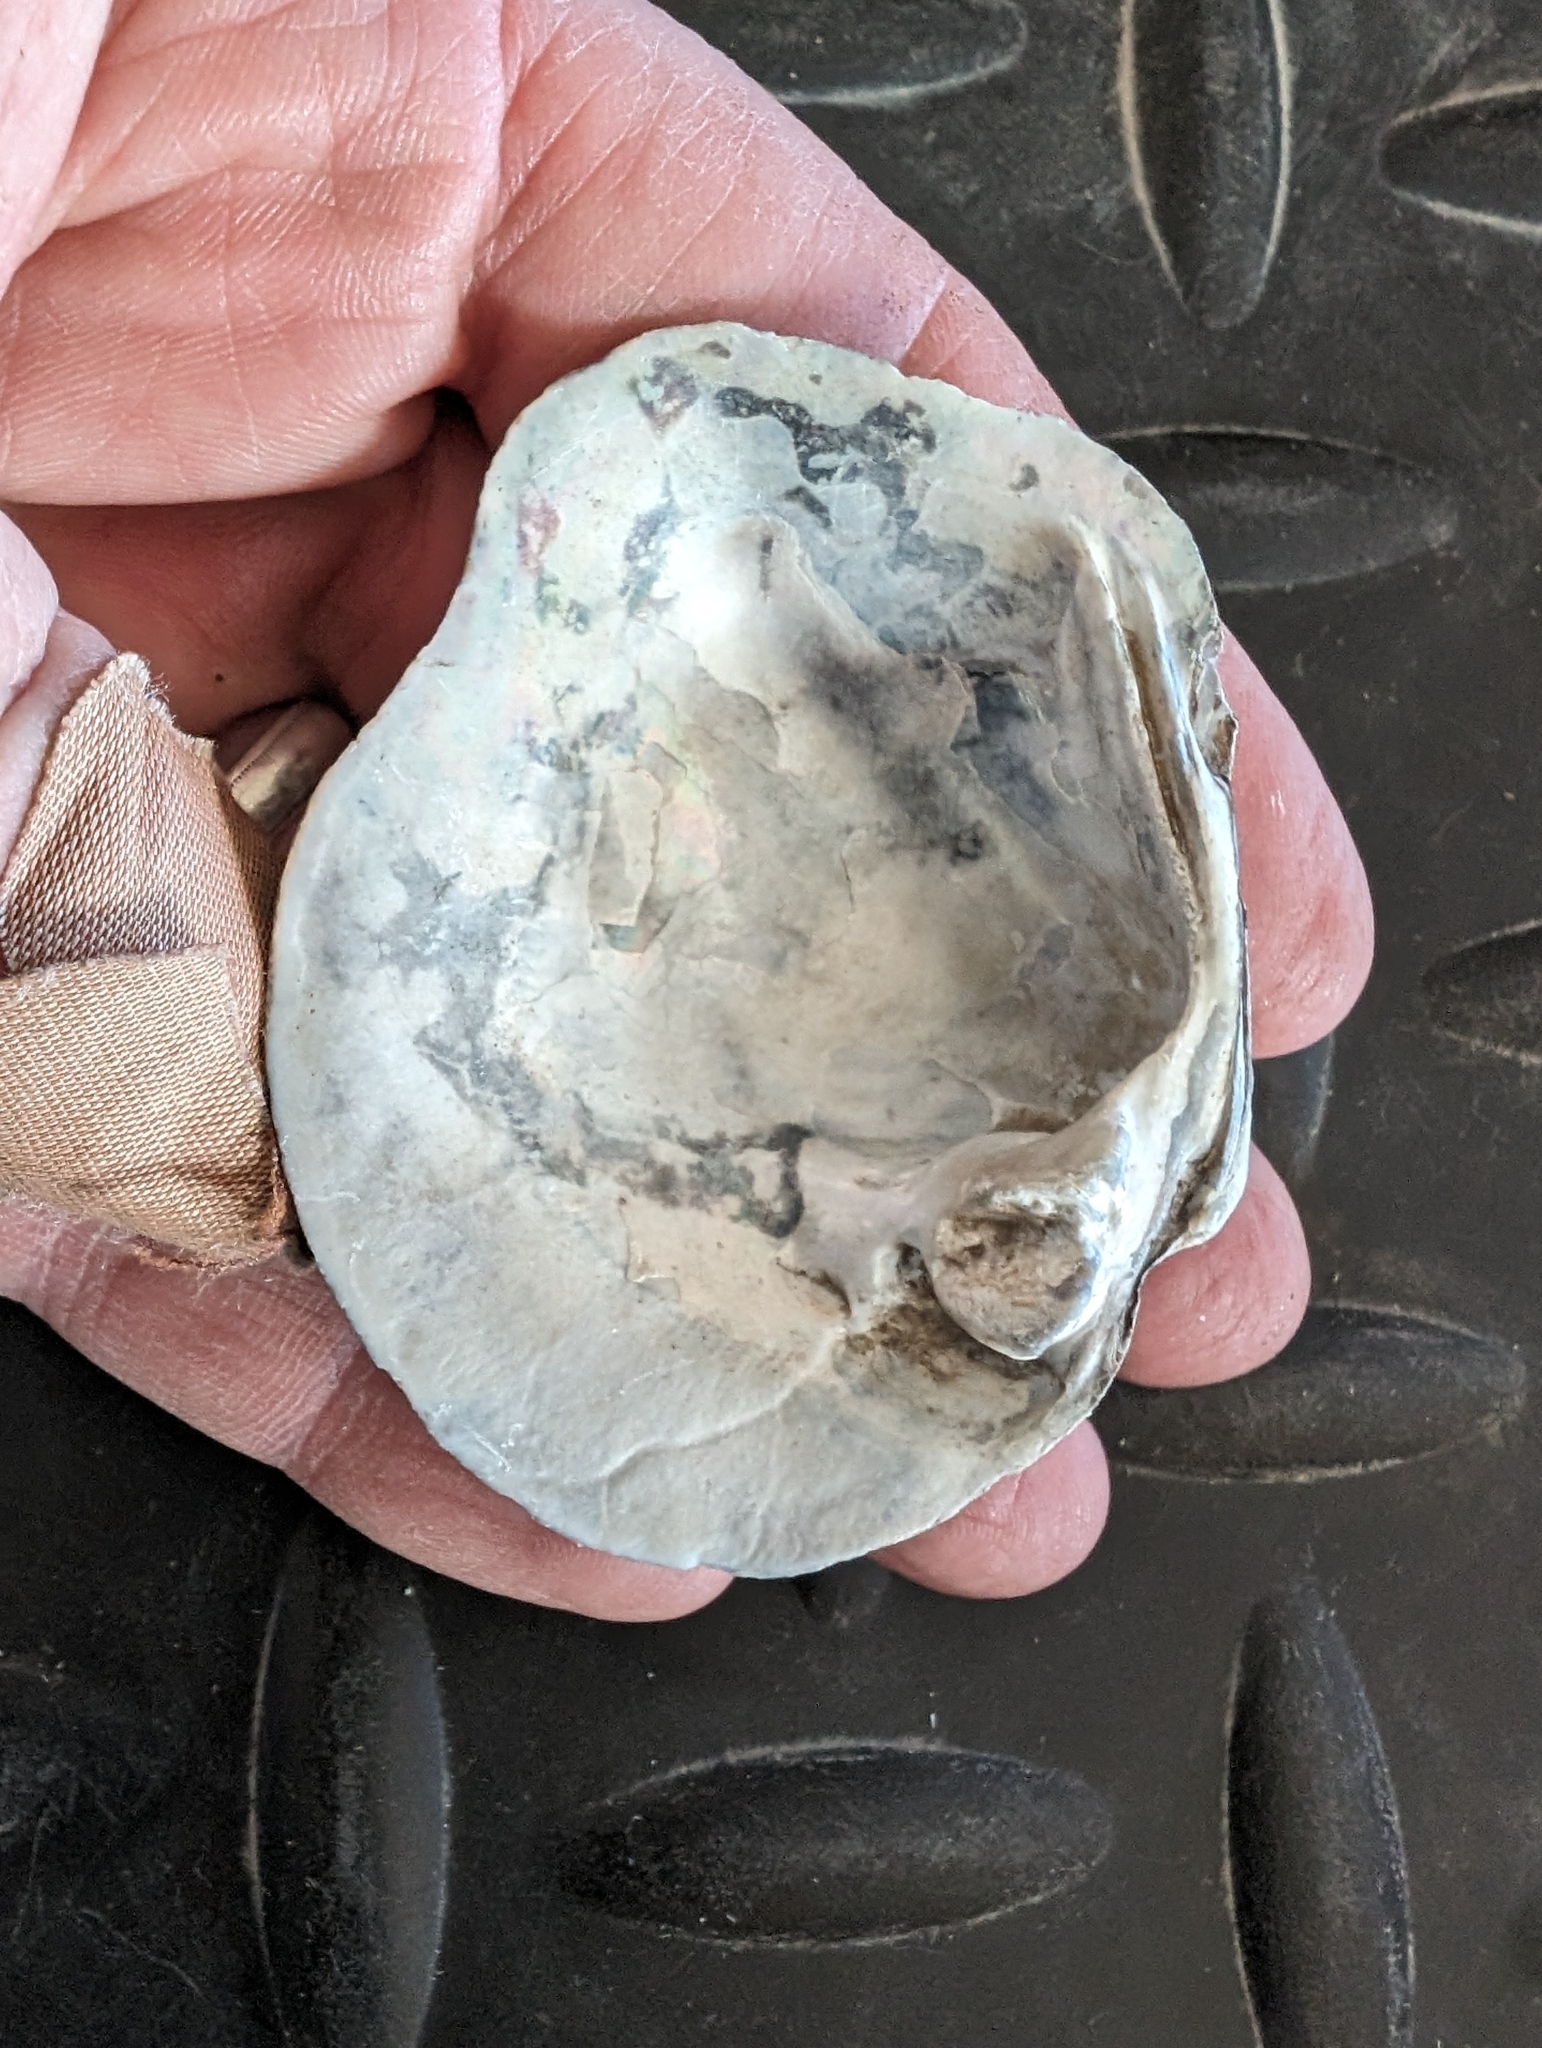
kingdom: Animalia
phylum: Mollusca
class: Bivalvia
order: Unionida
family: Unionidae
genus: Quadrula
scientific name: Quadrula quadrula
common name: Mapleleaf
